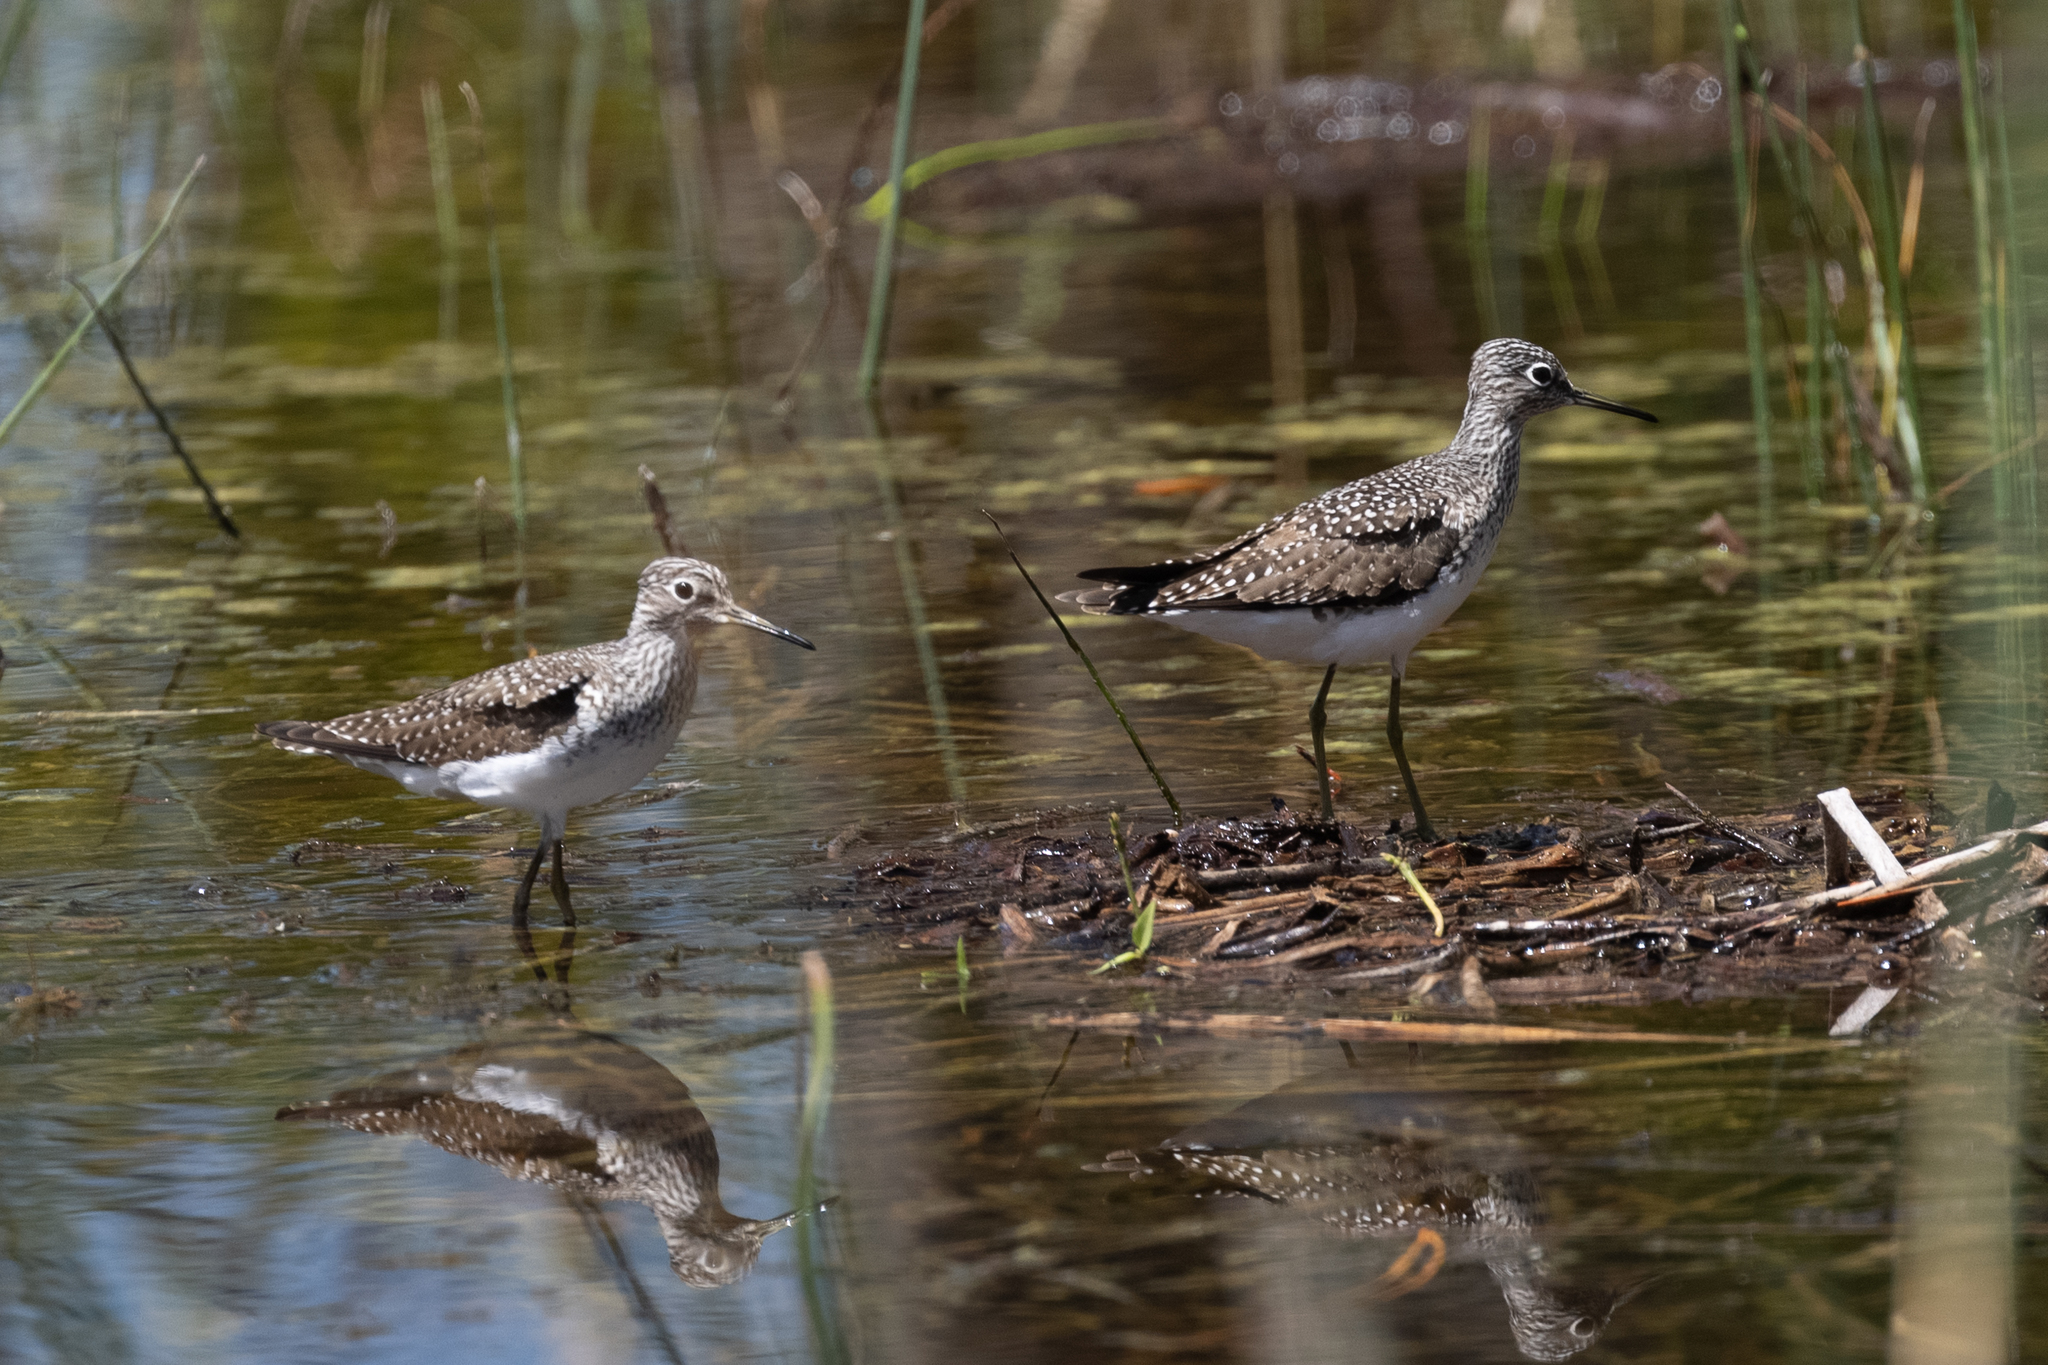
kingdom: Animalia
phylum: Chordata
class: Aves
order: Charadriiformes
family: Scolopacidae
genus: Tringa
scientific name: Tringa solitaria
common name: Solitary sandpiper
